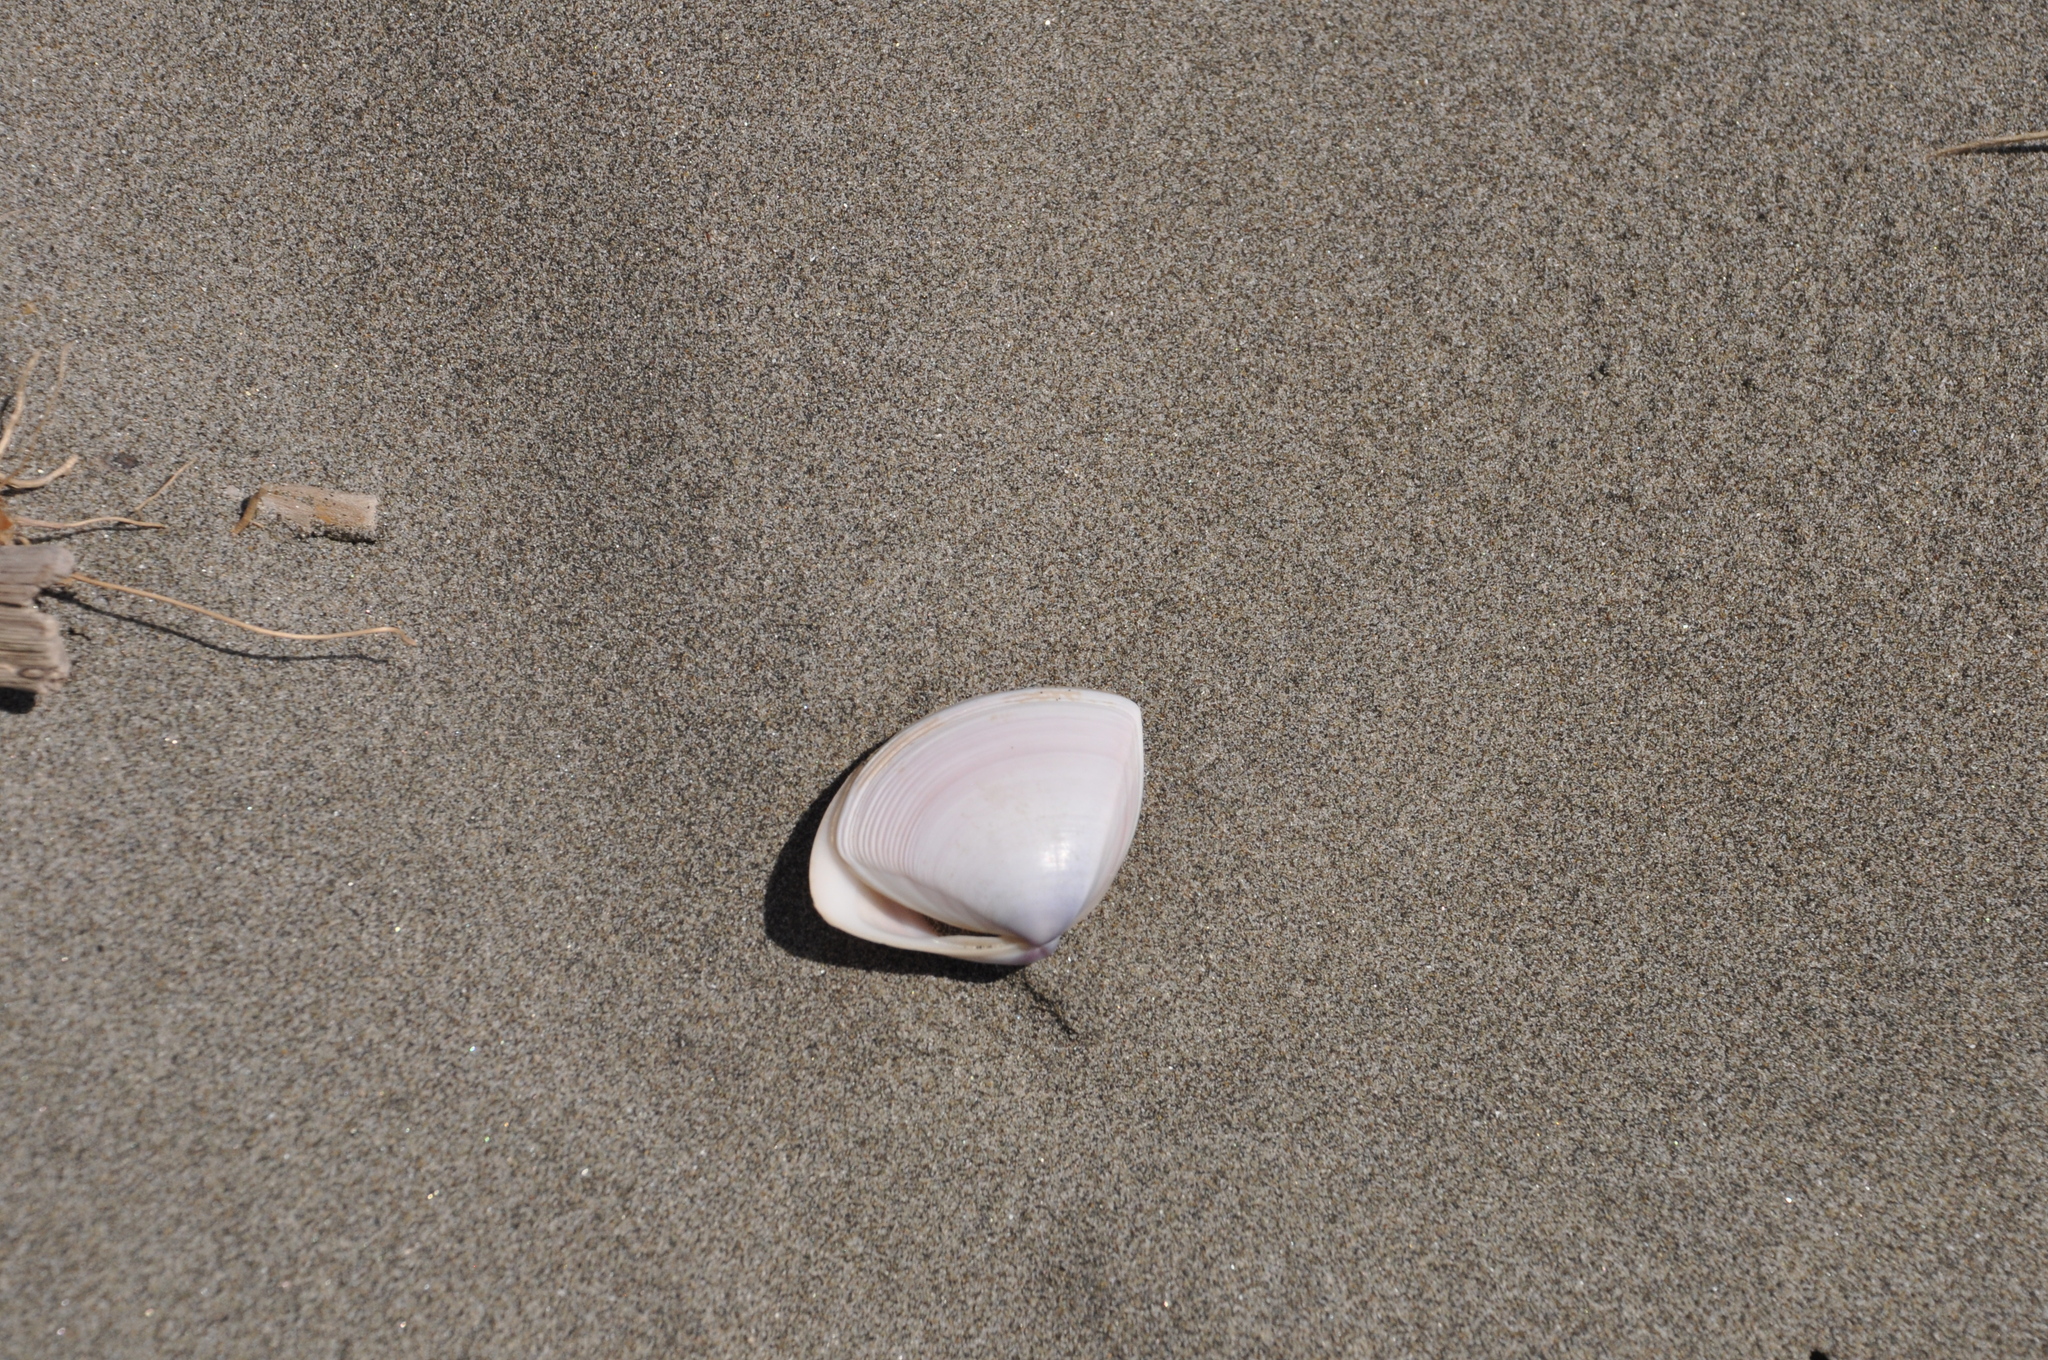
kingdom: Animalia
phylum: Mollusca
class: Bivalvia
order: Venerida
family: Mactridae
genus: Crassula
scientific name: Crassula aequilatera
